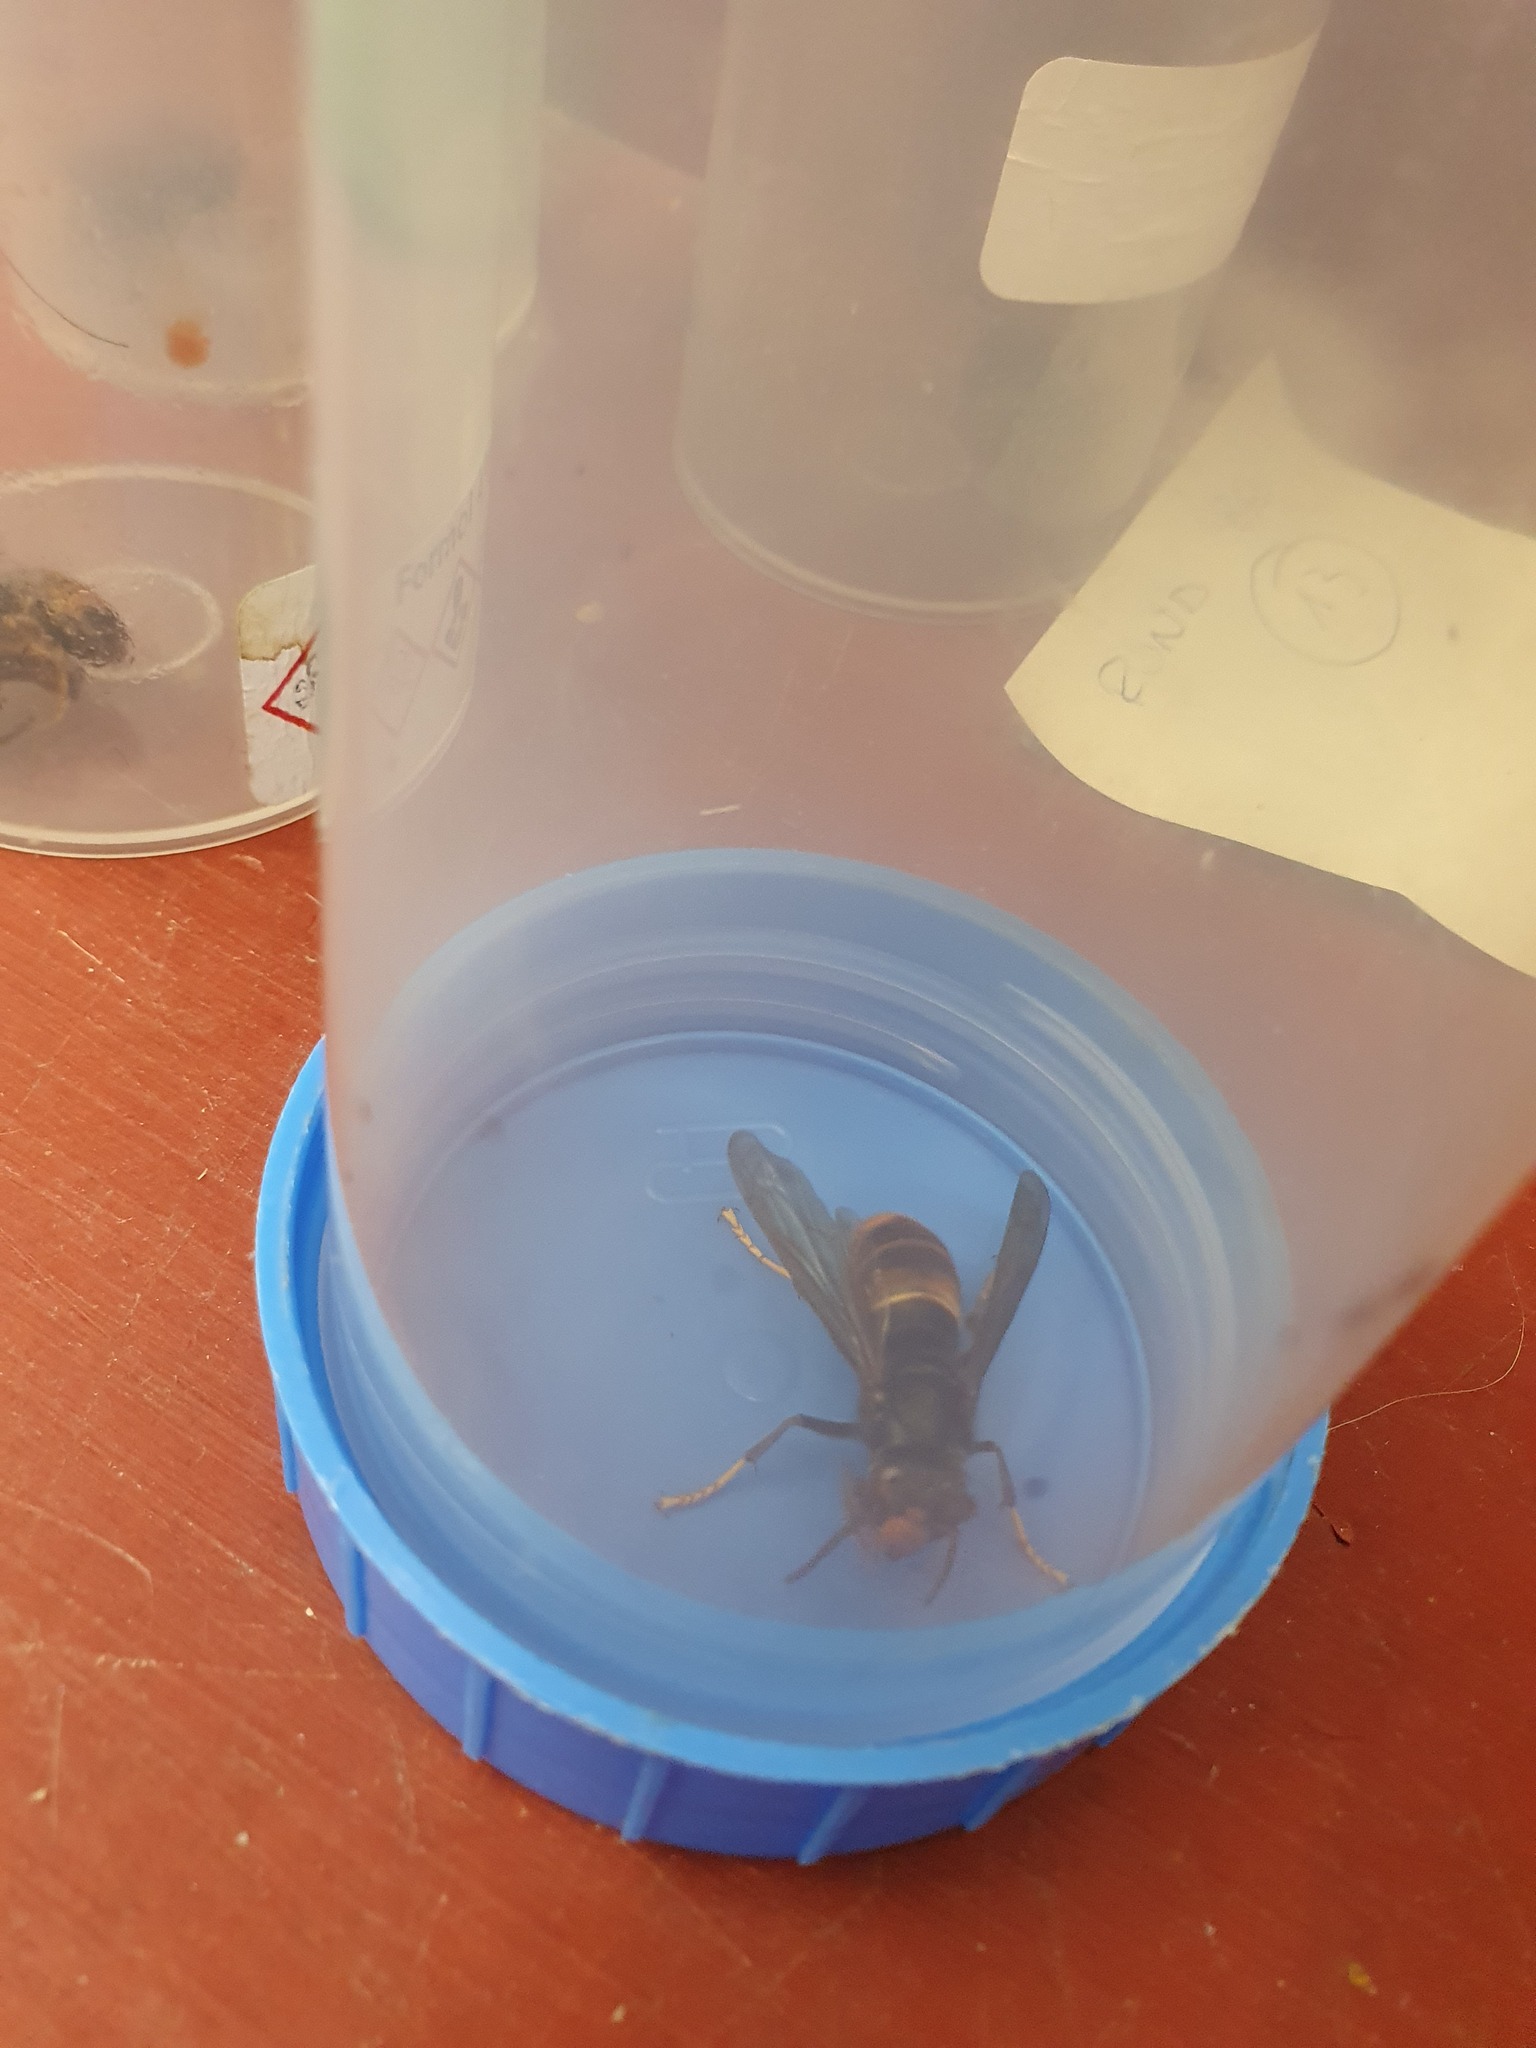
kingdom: Animalia
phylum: Arthropoda
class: Insecta
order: Hymenoptera
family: Vespidae
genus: Vespa
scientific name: Vespa velutina
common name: Asian hornet
